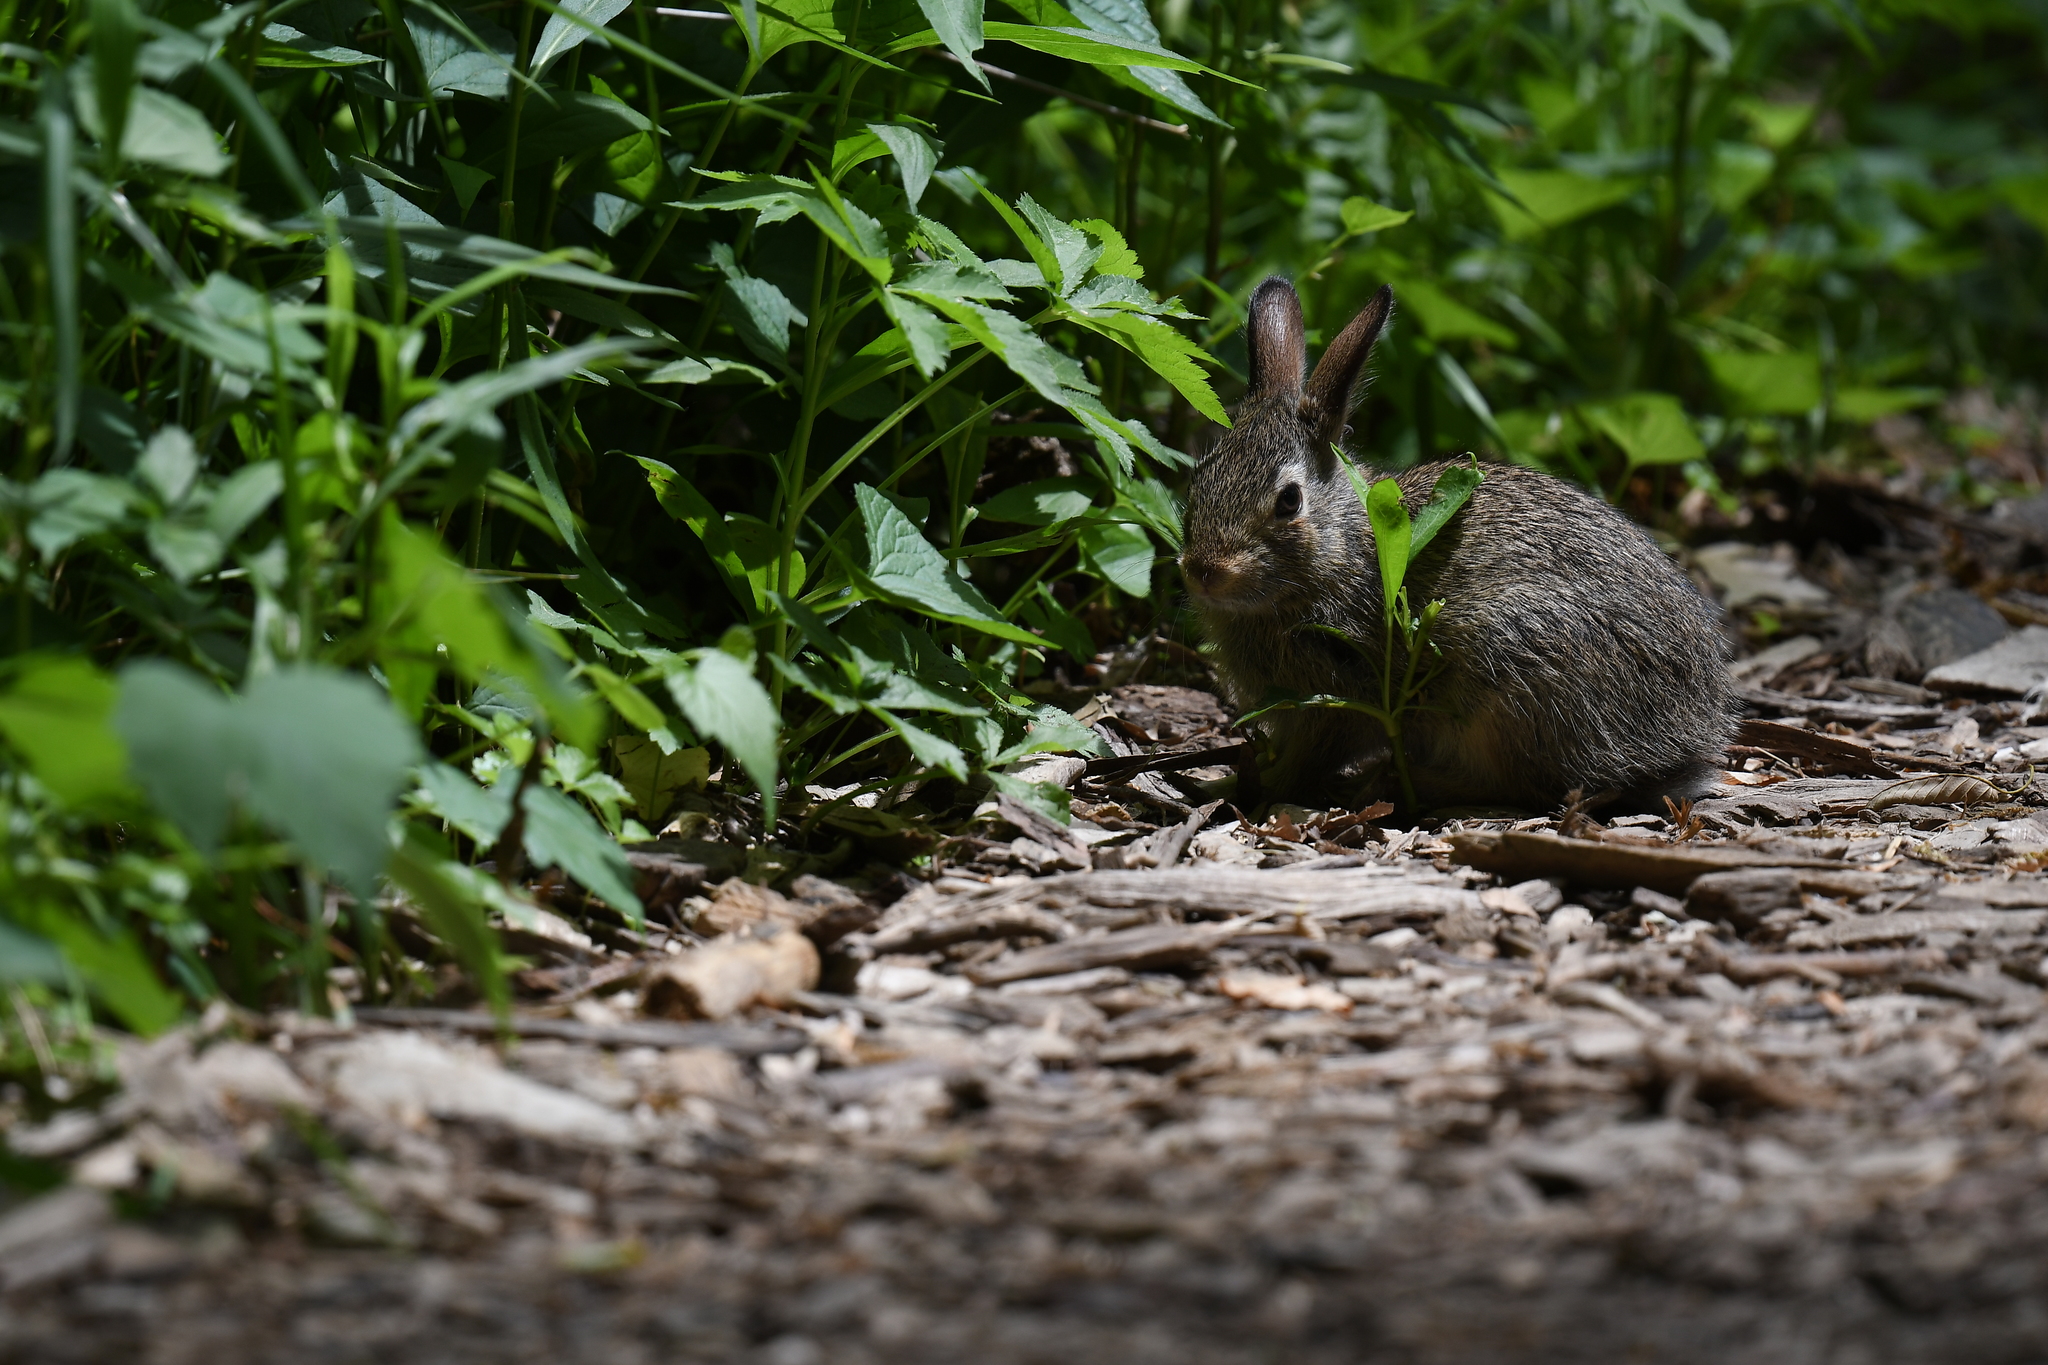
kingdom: Animalia
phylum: Chordata
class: Mammalia
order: Lagomorpha
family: Leporidae
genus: Sylvilagus
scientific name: Sylvilagus floridanus
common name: Eastern cottontail
